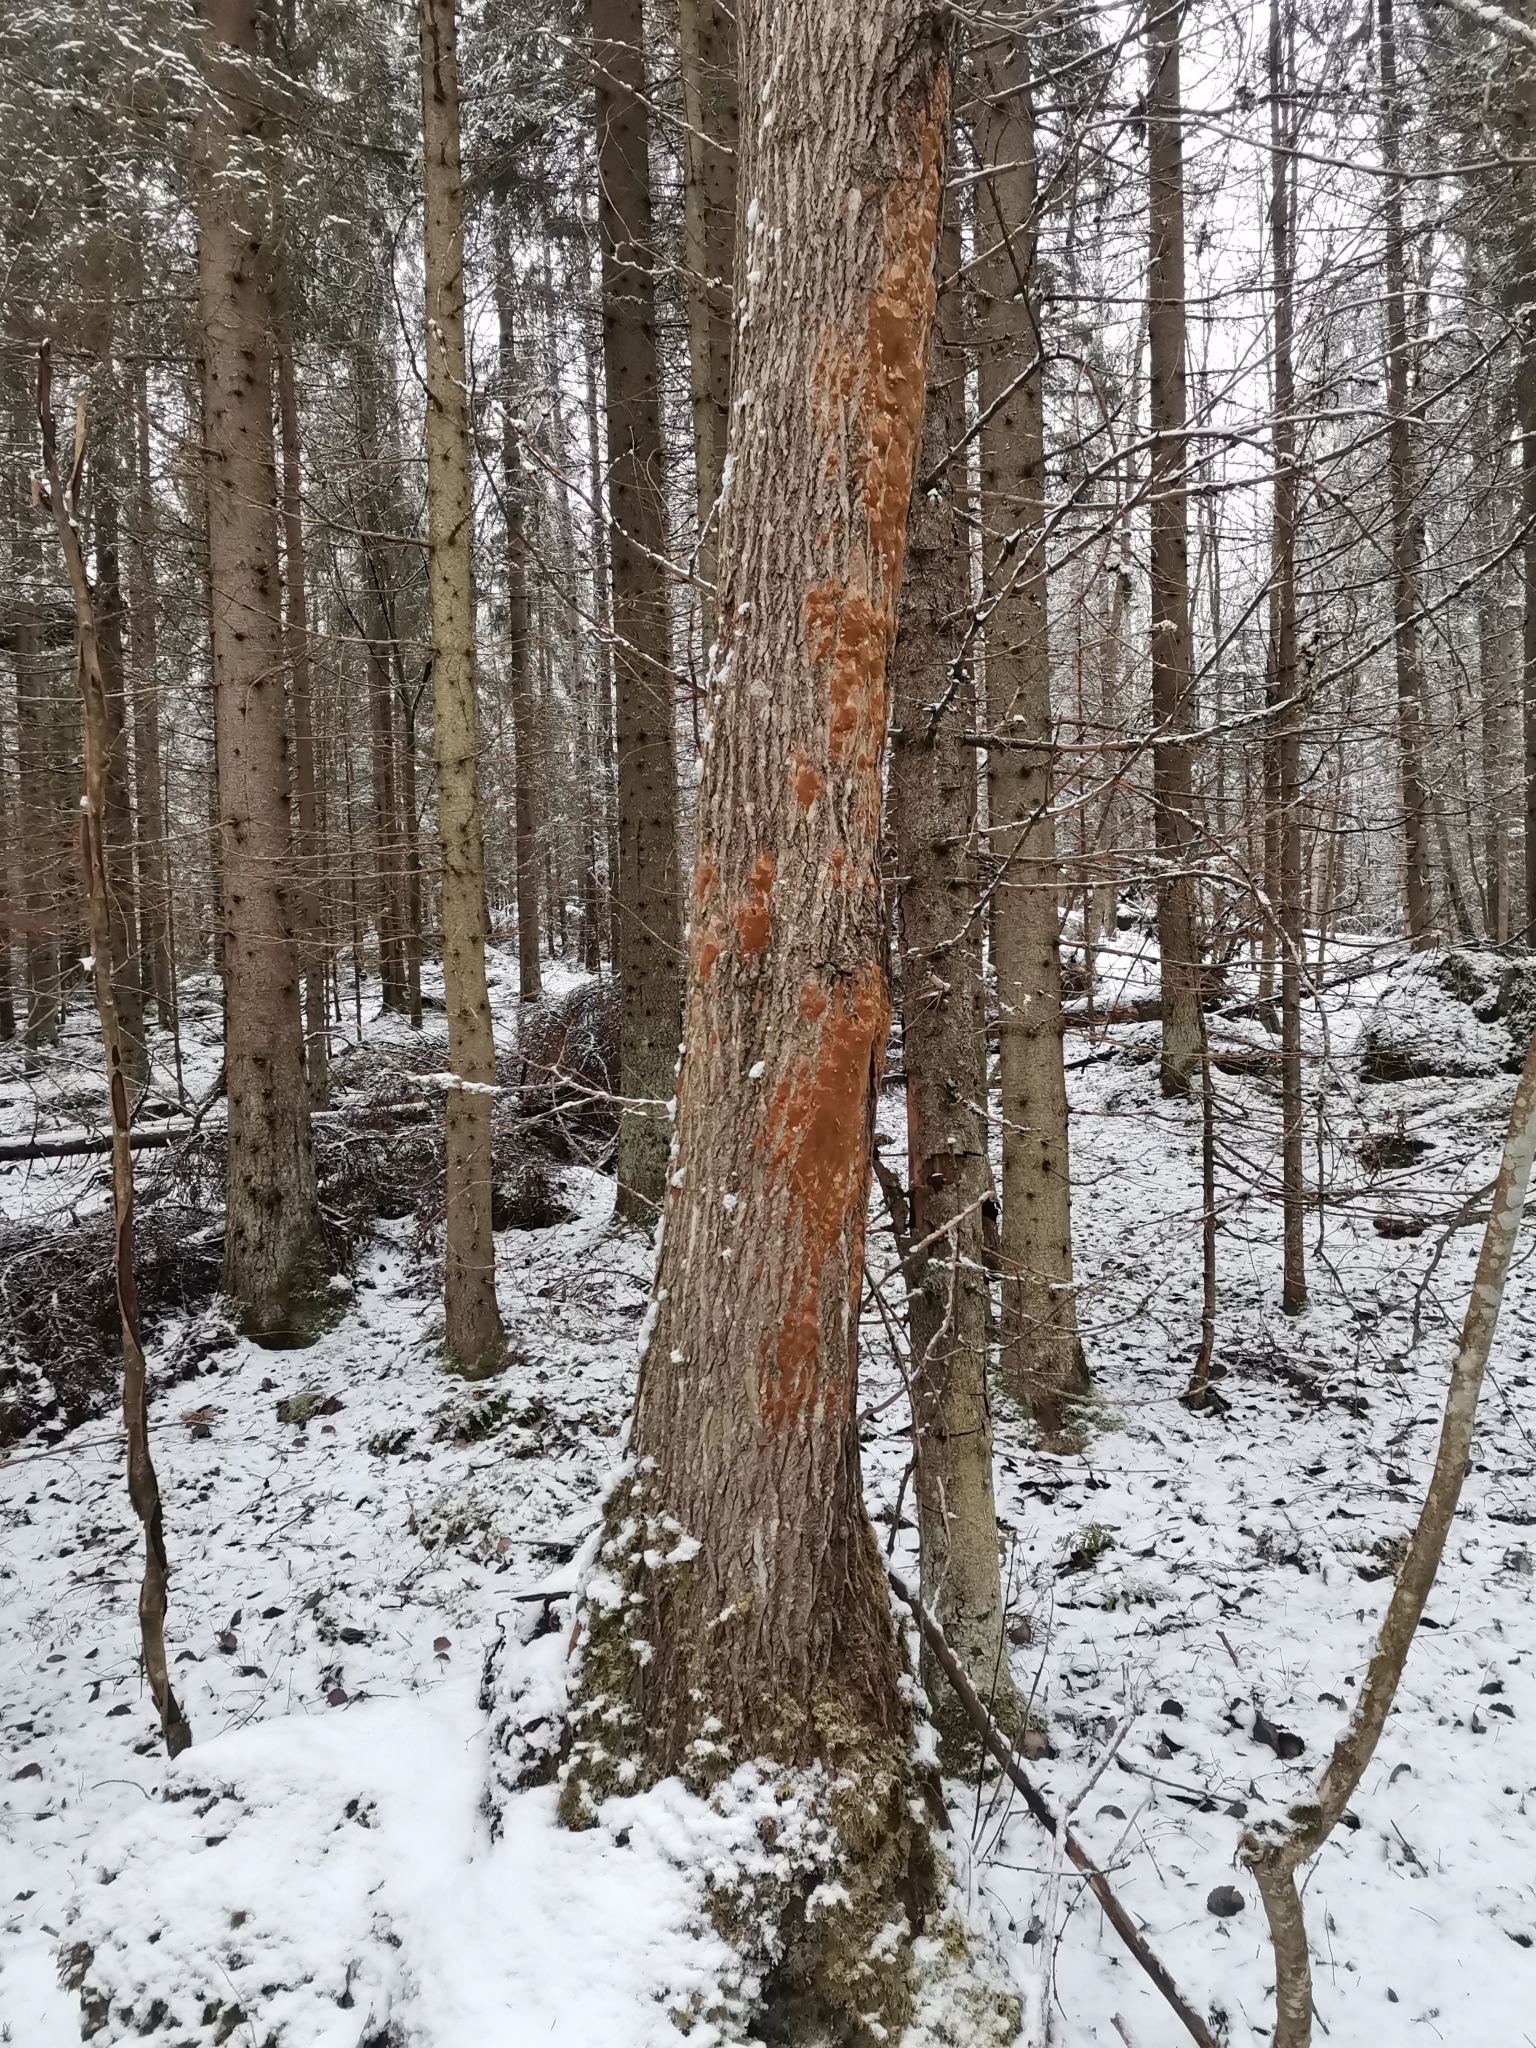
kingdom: Fungi
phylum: Basidiomycota
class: Agaricomycetes
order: Hymenochaetales
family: Hymenochaetaceae
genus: Fomitiporia
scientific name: Fomitiporia punctata
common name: Elbowpatch crust
